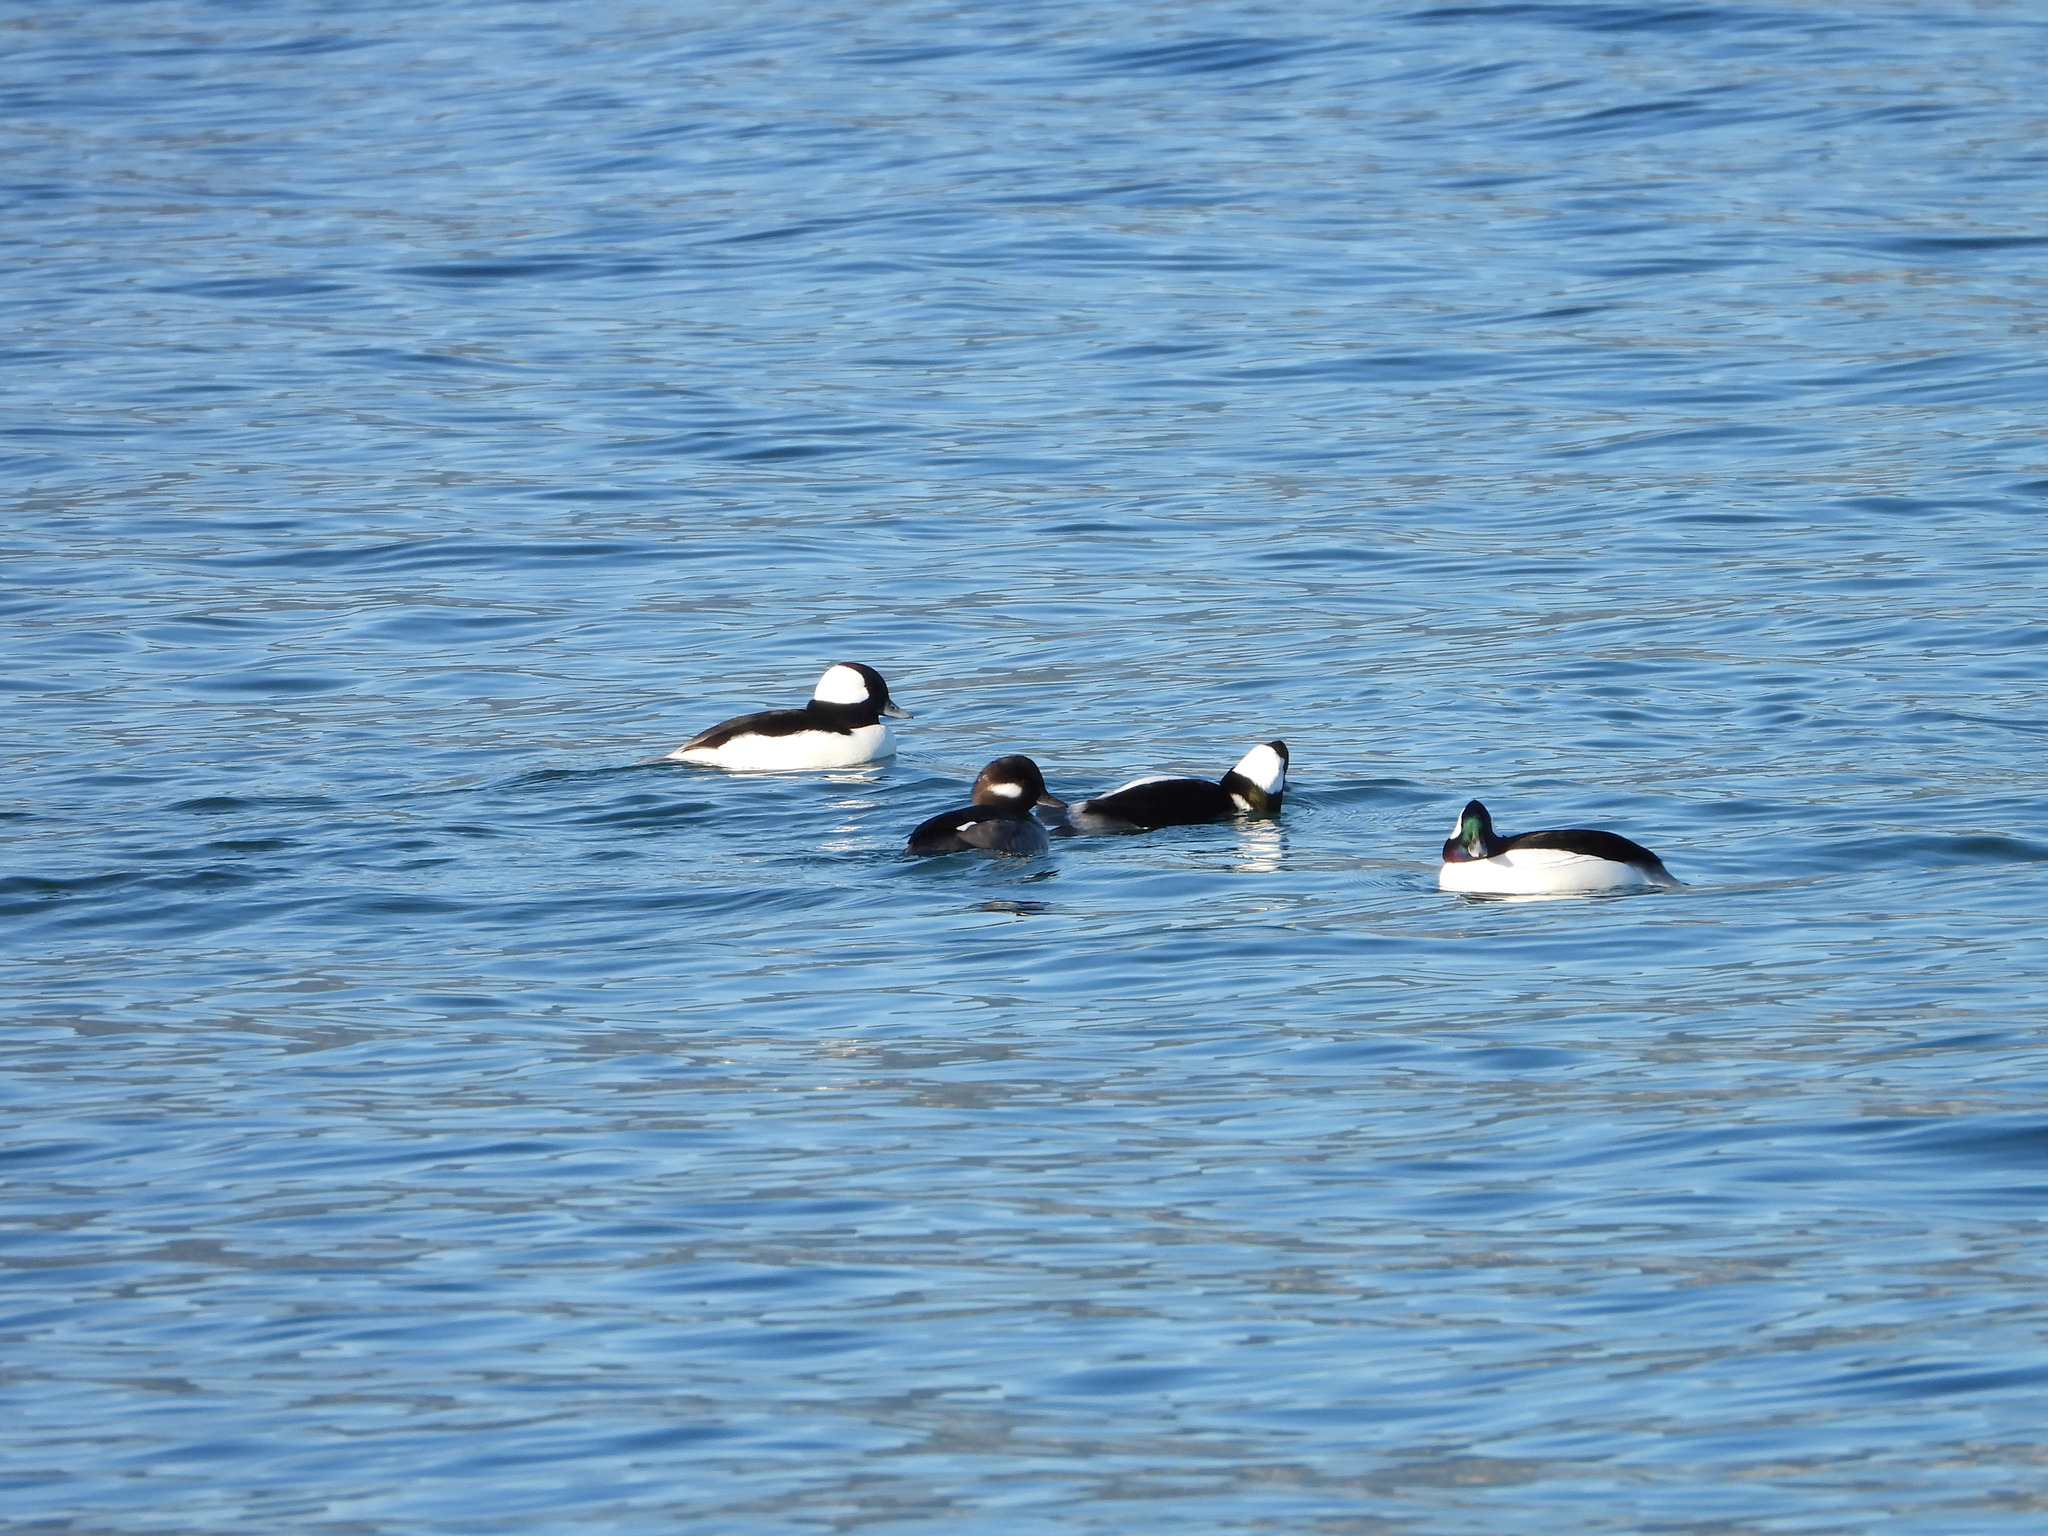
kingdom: Animalia
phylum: Chordata
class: Aves
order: Anseriformes
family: Anatidae
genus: Bucephala
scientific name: Bucephala albeola
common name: Bufflehead
